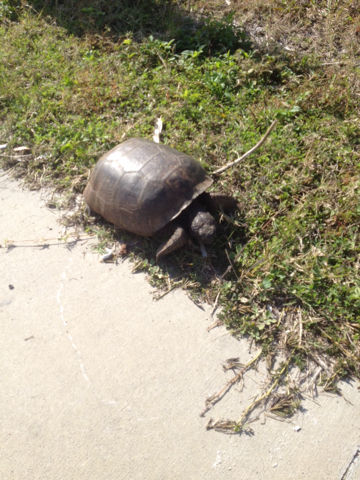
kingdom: Animalia
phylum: Chordata
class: Testudines
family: Testudinidae
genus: Gopherus
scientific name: Gopherus polyphemus
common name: Florida gopher tortoise
